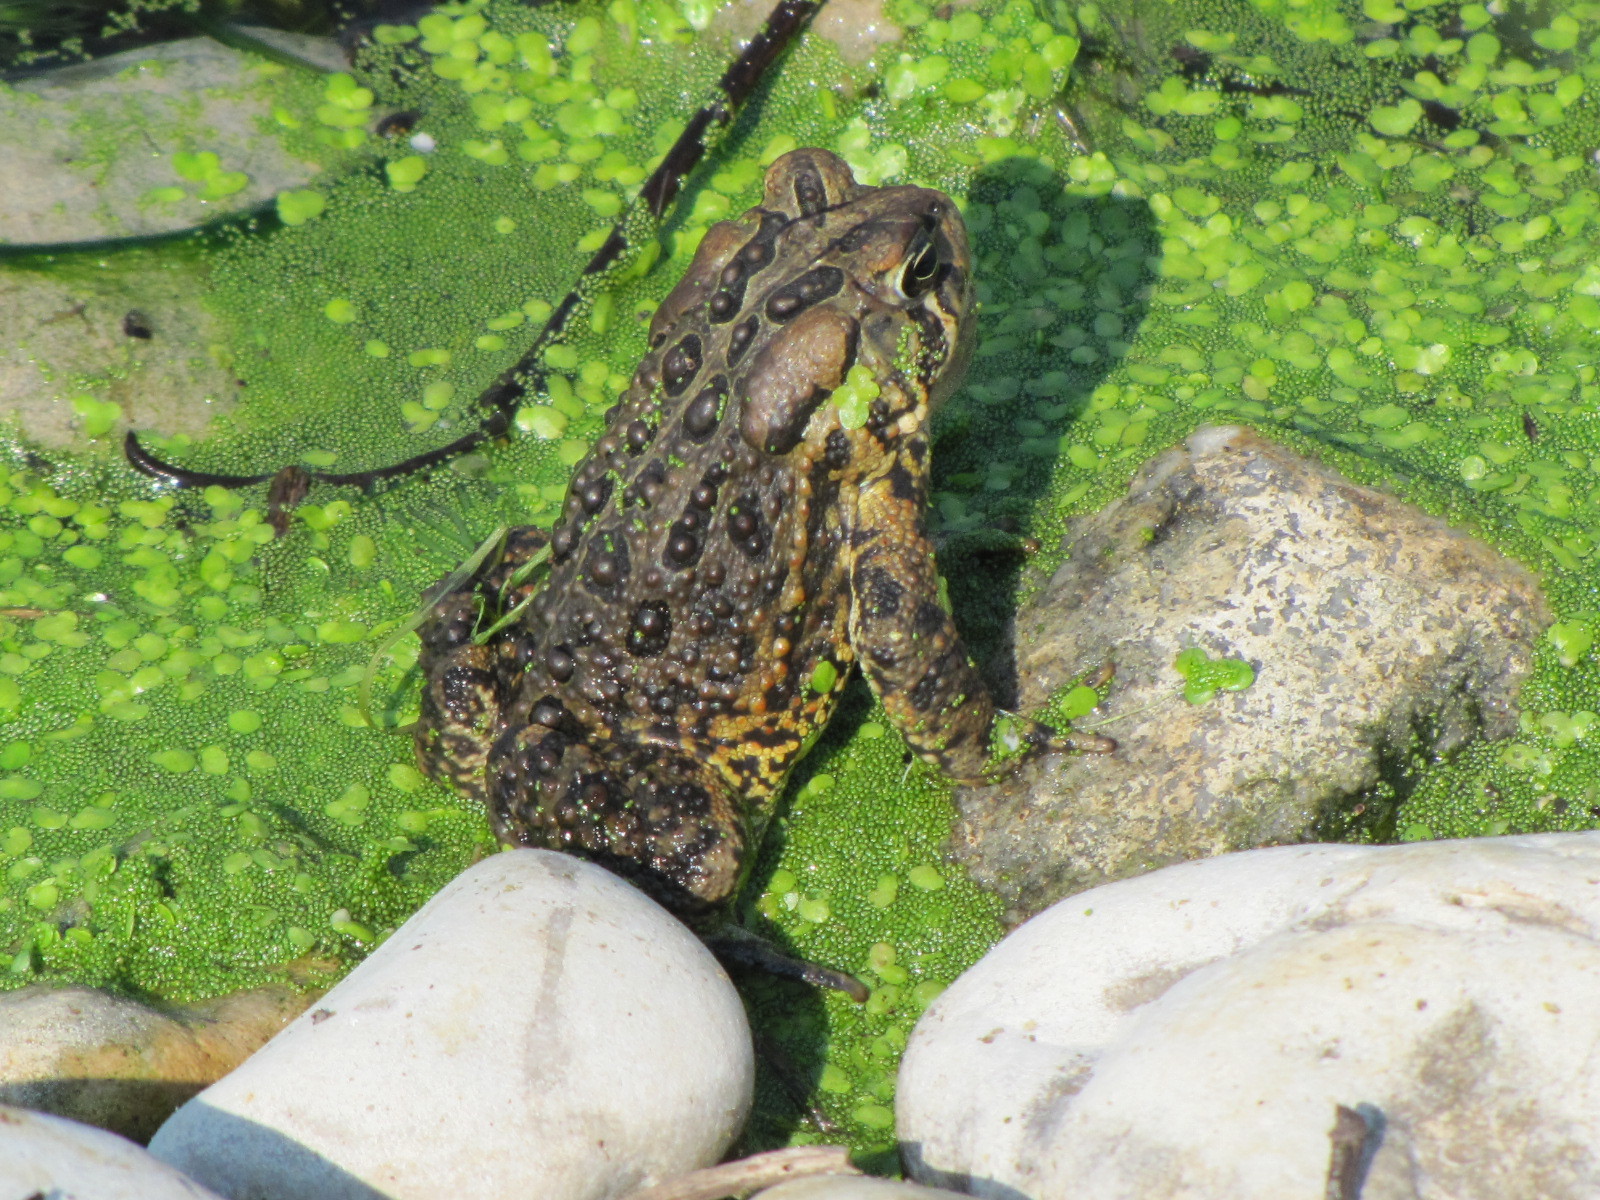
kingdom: Animalia
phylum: Chordata
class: Amphibia
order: Anura
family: Bufonidae
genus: Anaxyrus
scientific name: Anaxyrus americanus
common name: American toad
